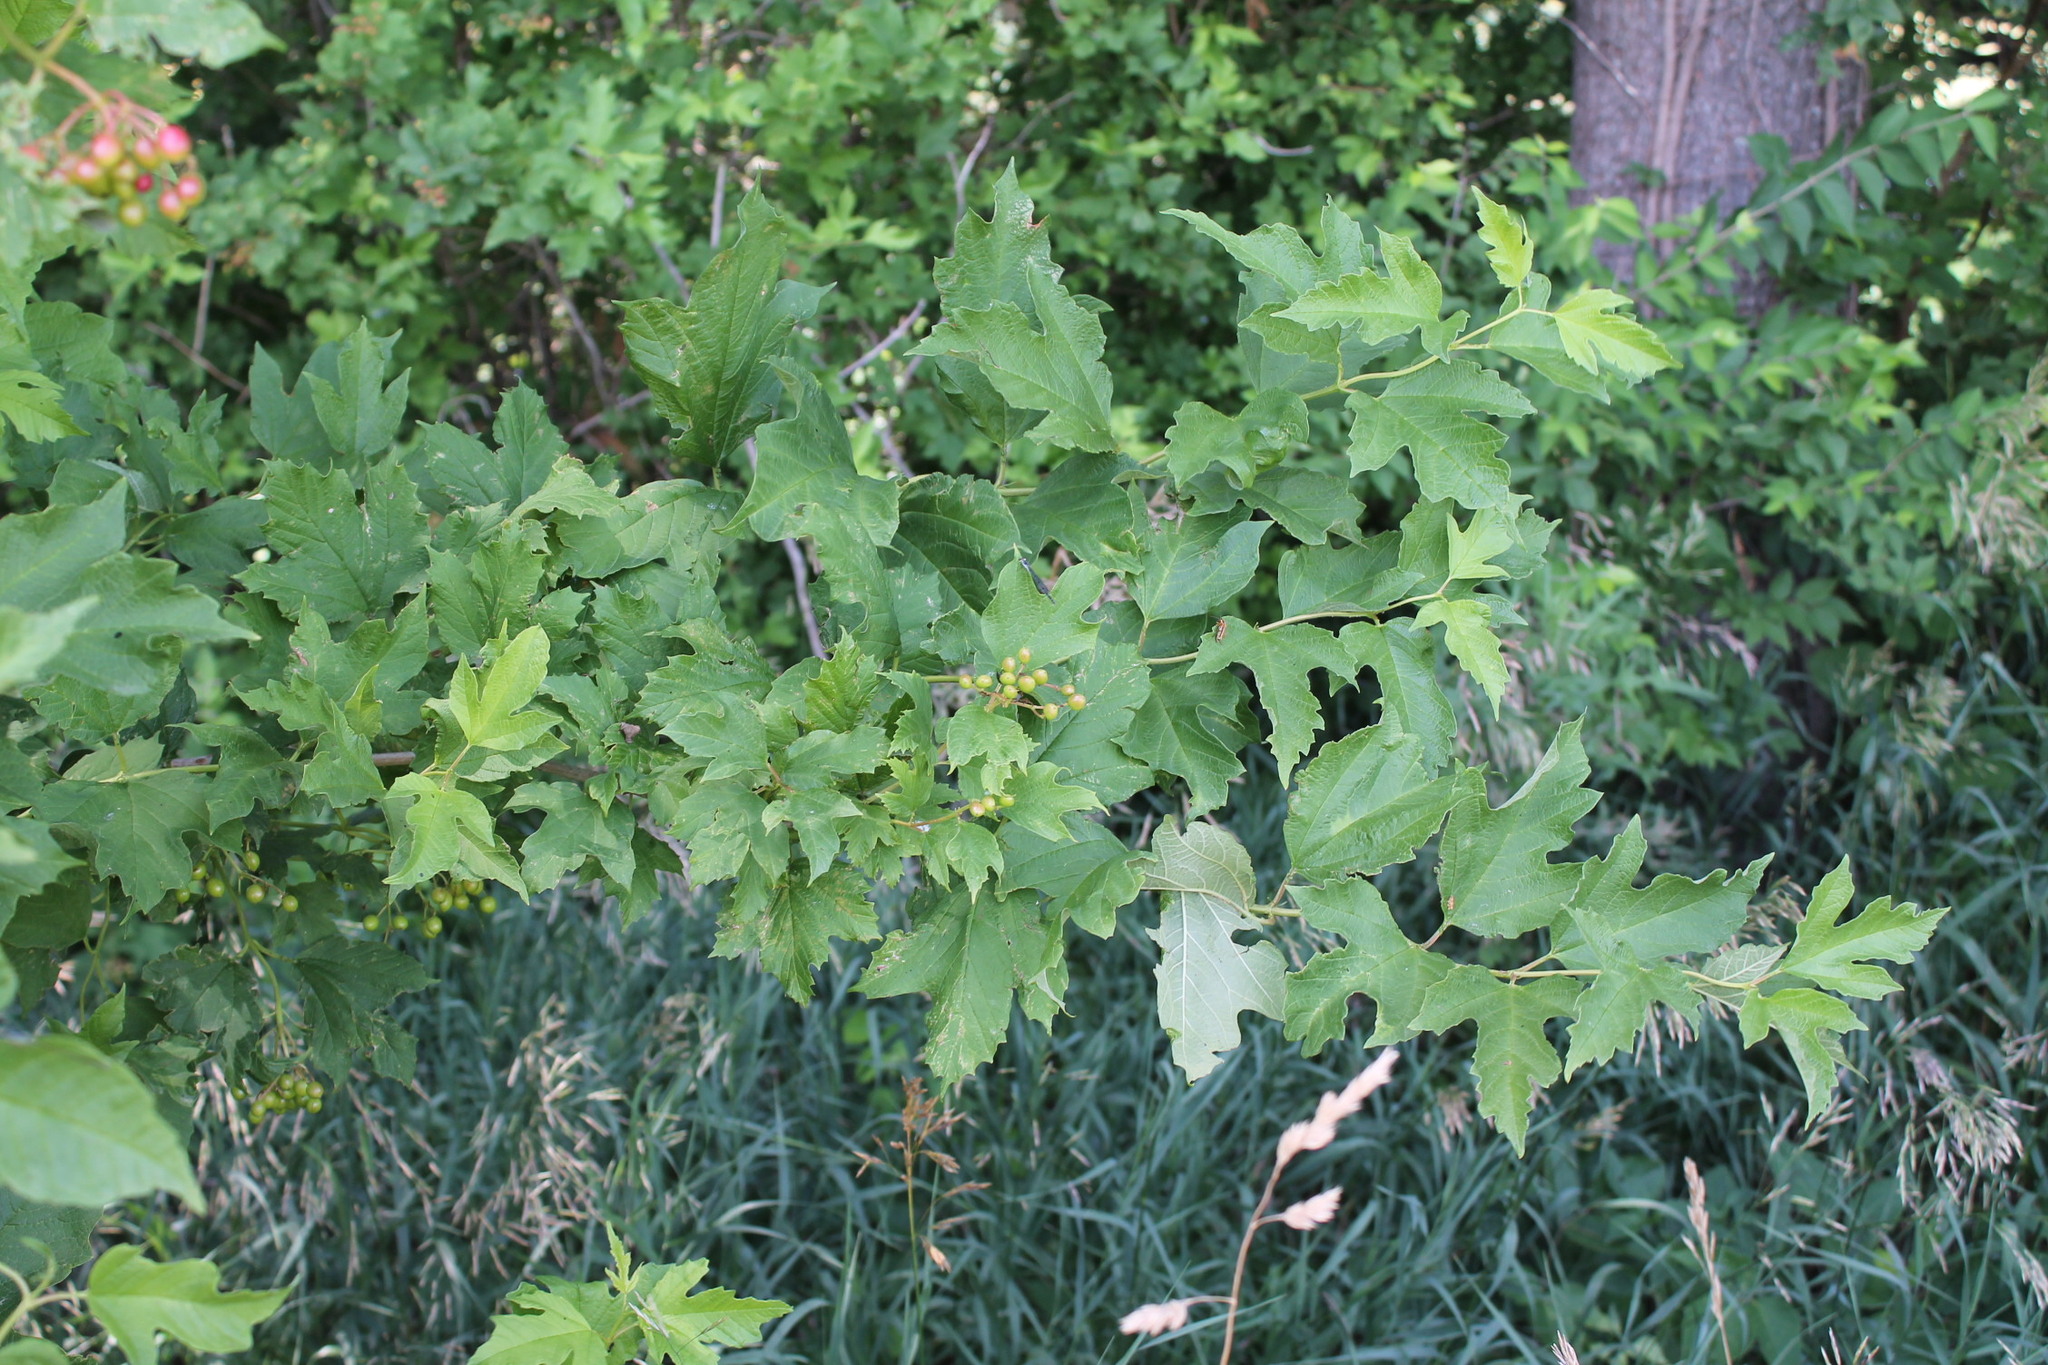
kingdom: Plantae
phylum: Tracheophyta
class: Magnoliopsida
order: Dipsacales
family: Viburnaceae
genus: Viburnum
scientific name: Viburnum opulus
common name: Guelder-rose
